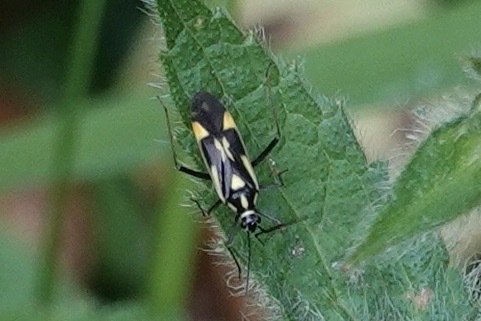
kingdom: Animalia
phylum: Arthropoda
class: Insecta
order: Hemiptera
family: Miridae
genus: Grypocoris
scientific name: Grypocoris stysi
